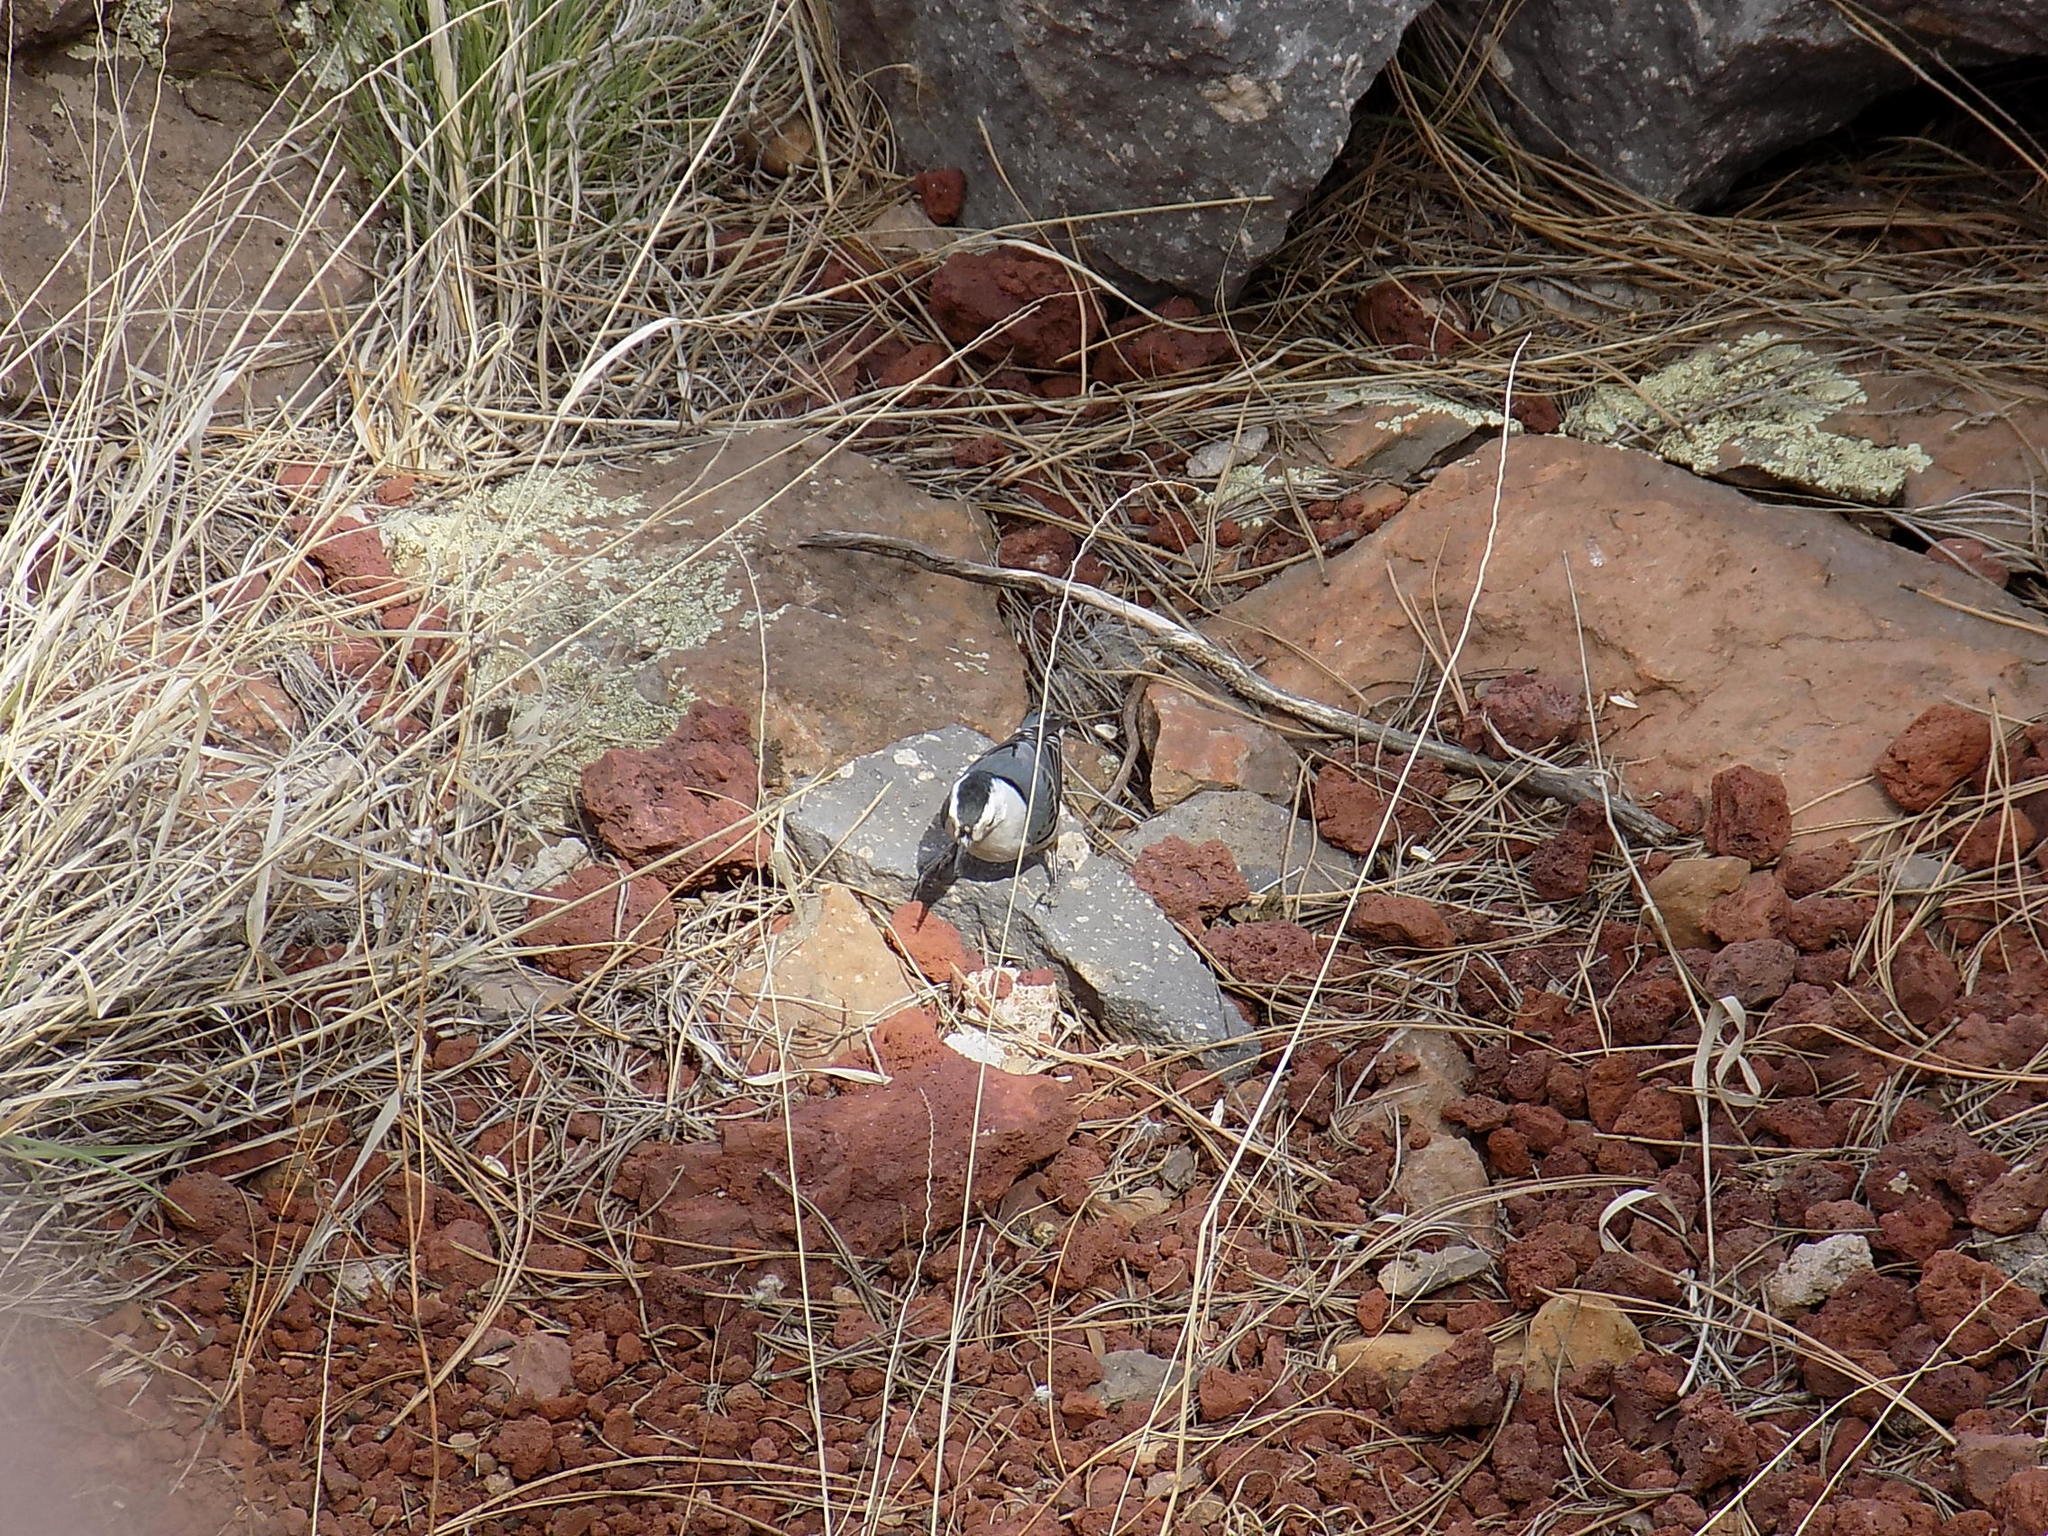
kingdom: Animalia
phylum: Chordata
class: Aves
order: Passeriformes
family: Sittidae
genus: Sitta
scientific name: Sitta carolinensis
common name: White-breasted nuthatch
